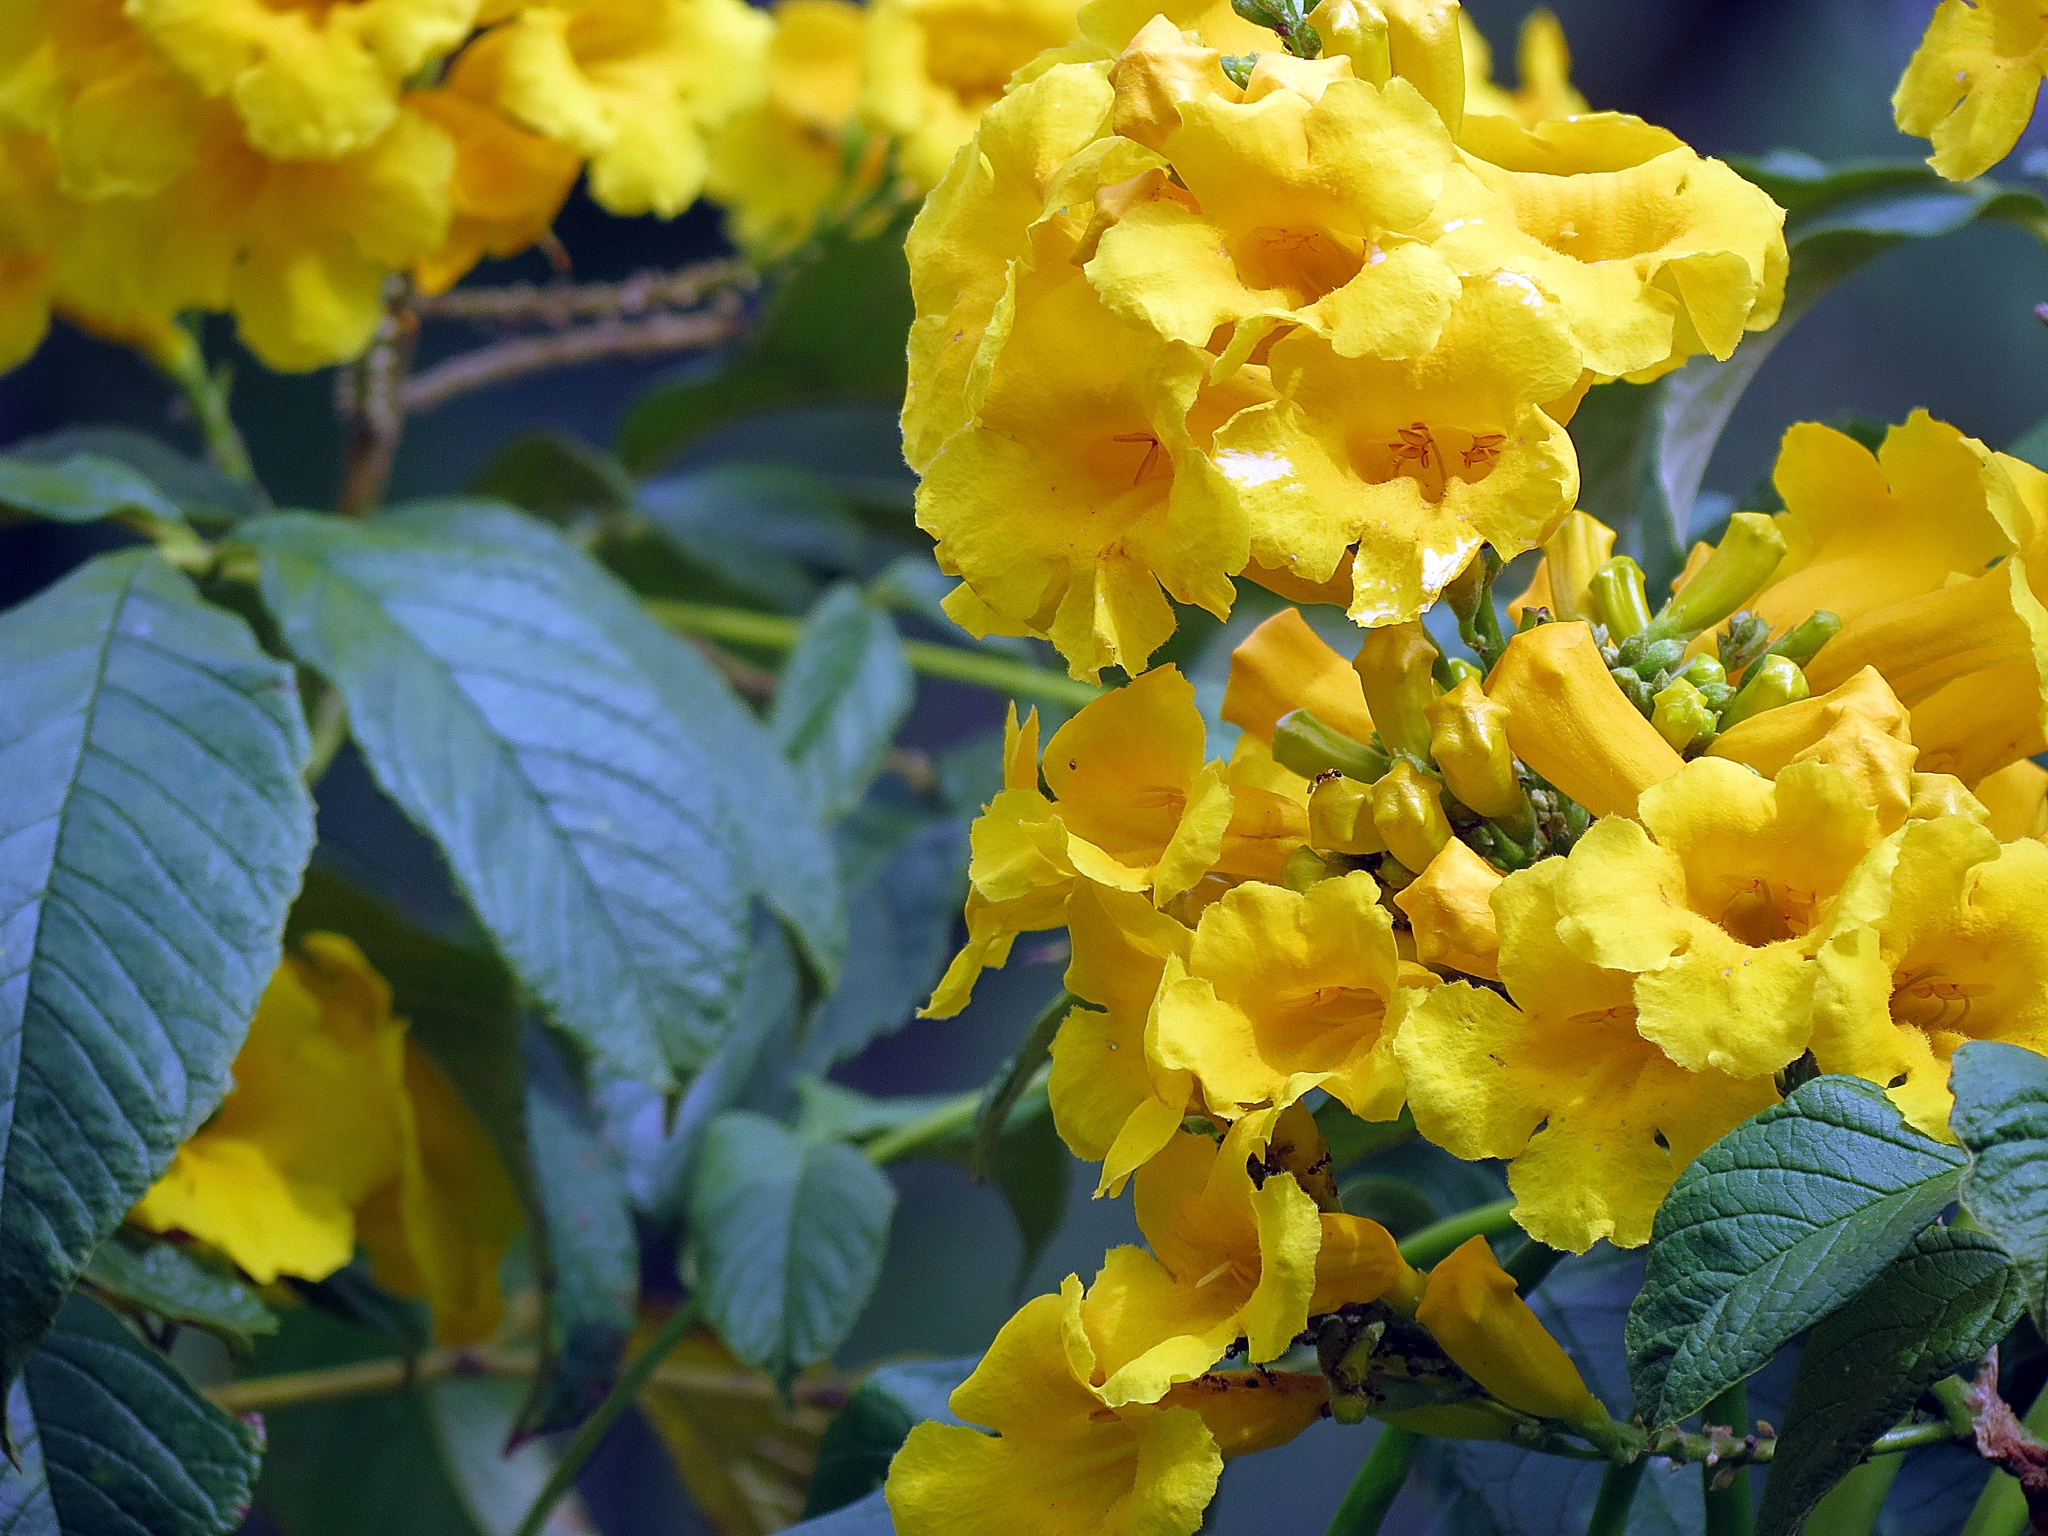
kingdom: Plantae
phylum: Tracheophyta
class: Magnoliopsida
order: Lamiales
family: Bignoniaceae
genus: Tecoma
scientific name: Tecoma stans
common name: Yellow trumpetbush
